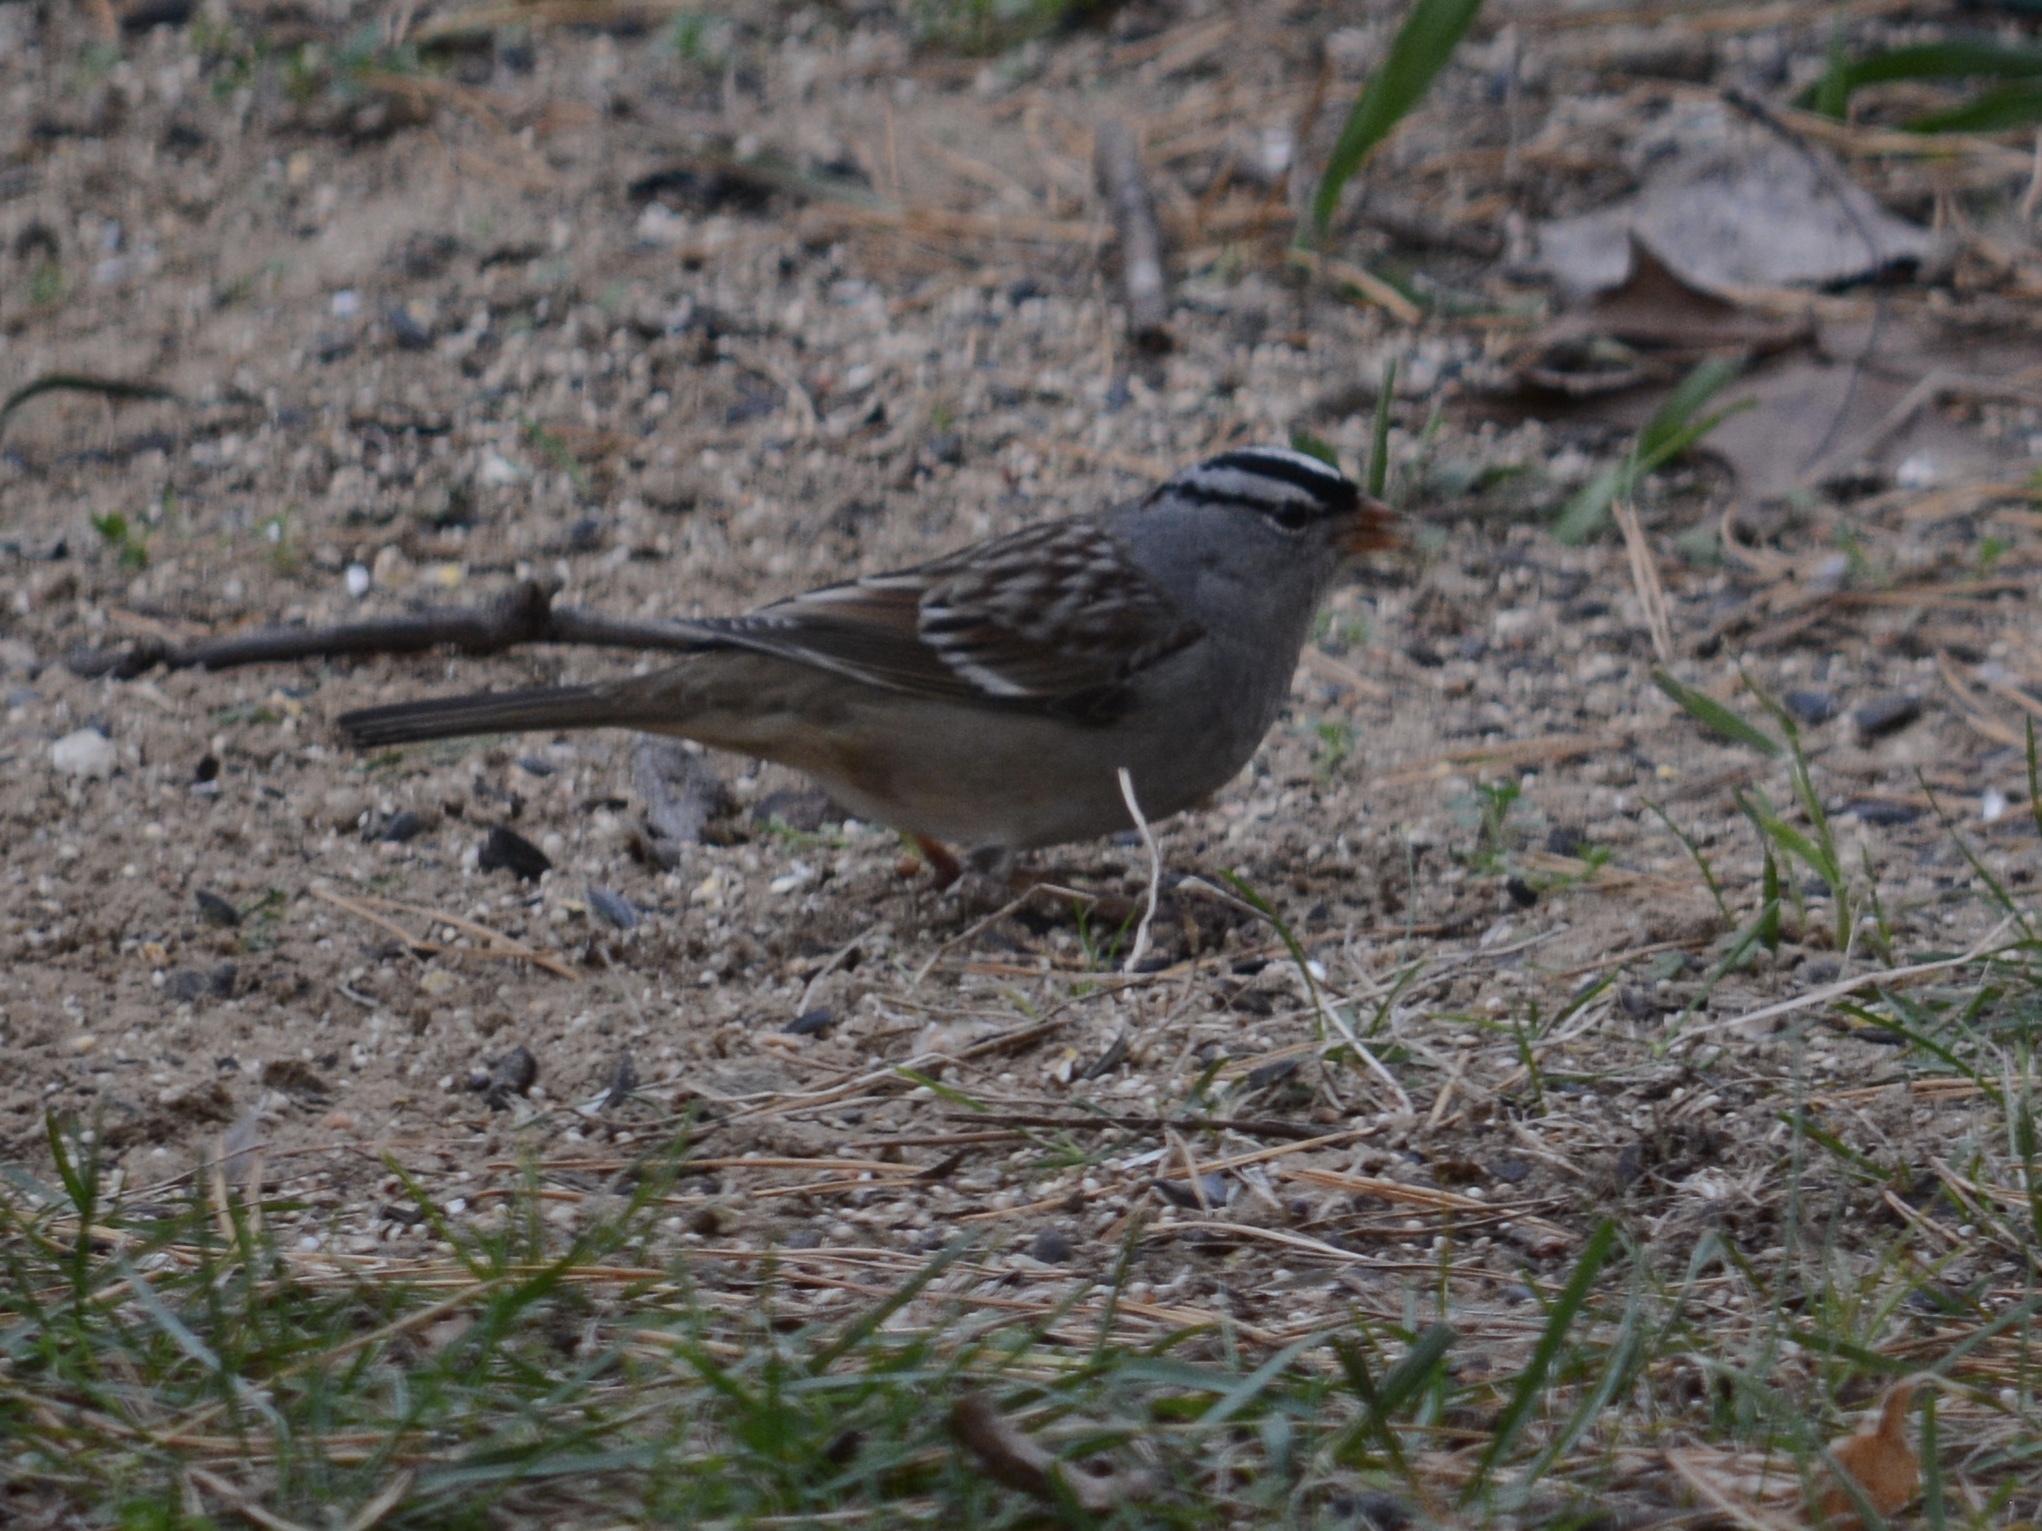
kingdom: Animalia
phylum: Chordata
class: Aves
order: Passeriformes
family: Passerellidae
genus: Zonotrichia
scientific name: Zonotrichia leucophrys
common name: White-crowned sparrow
